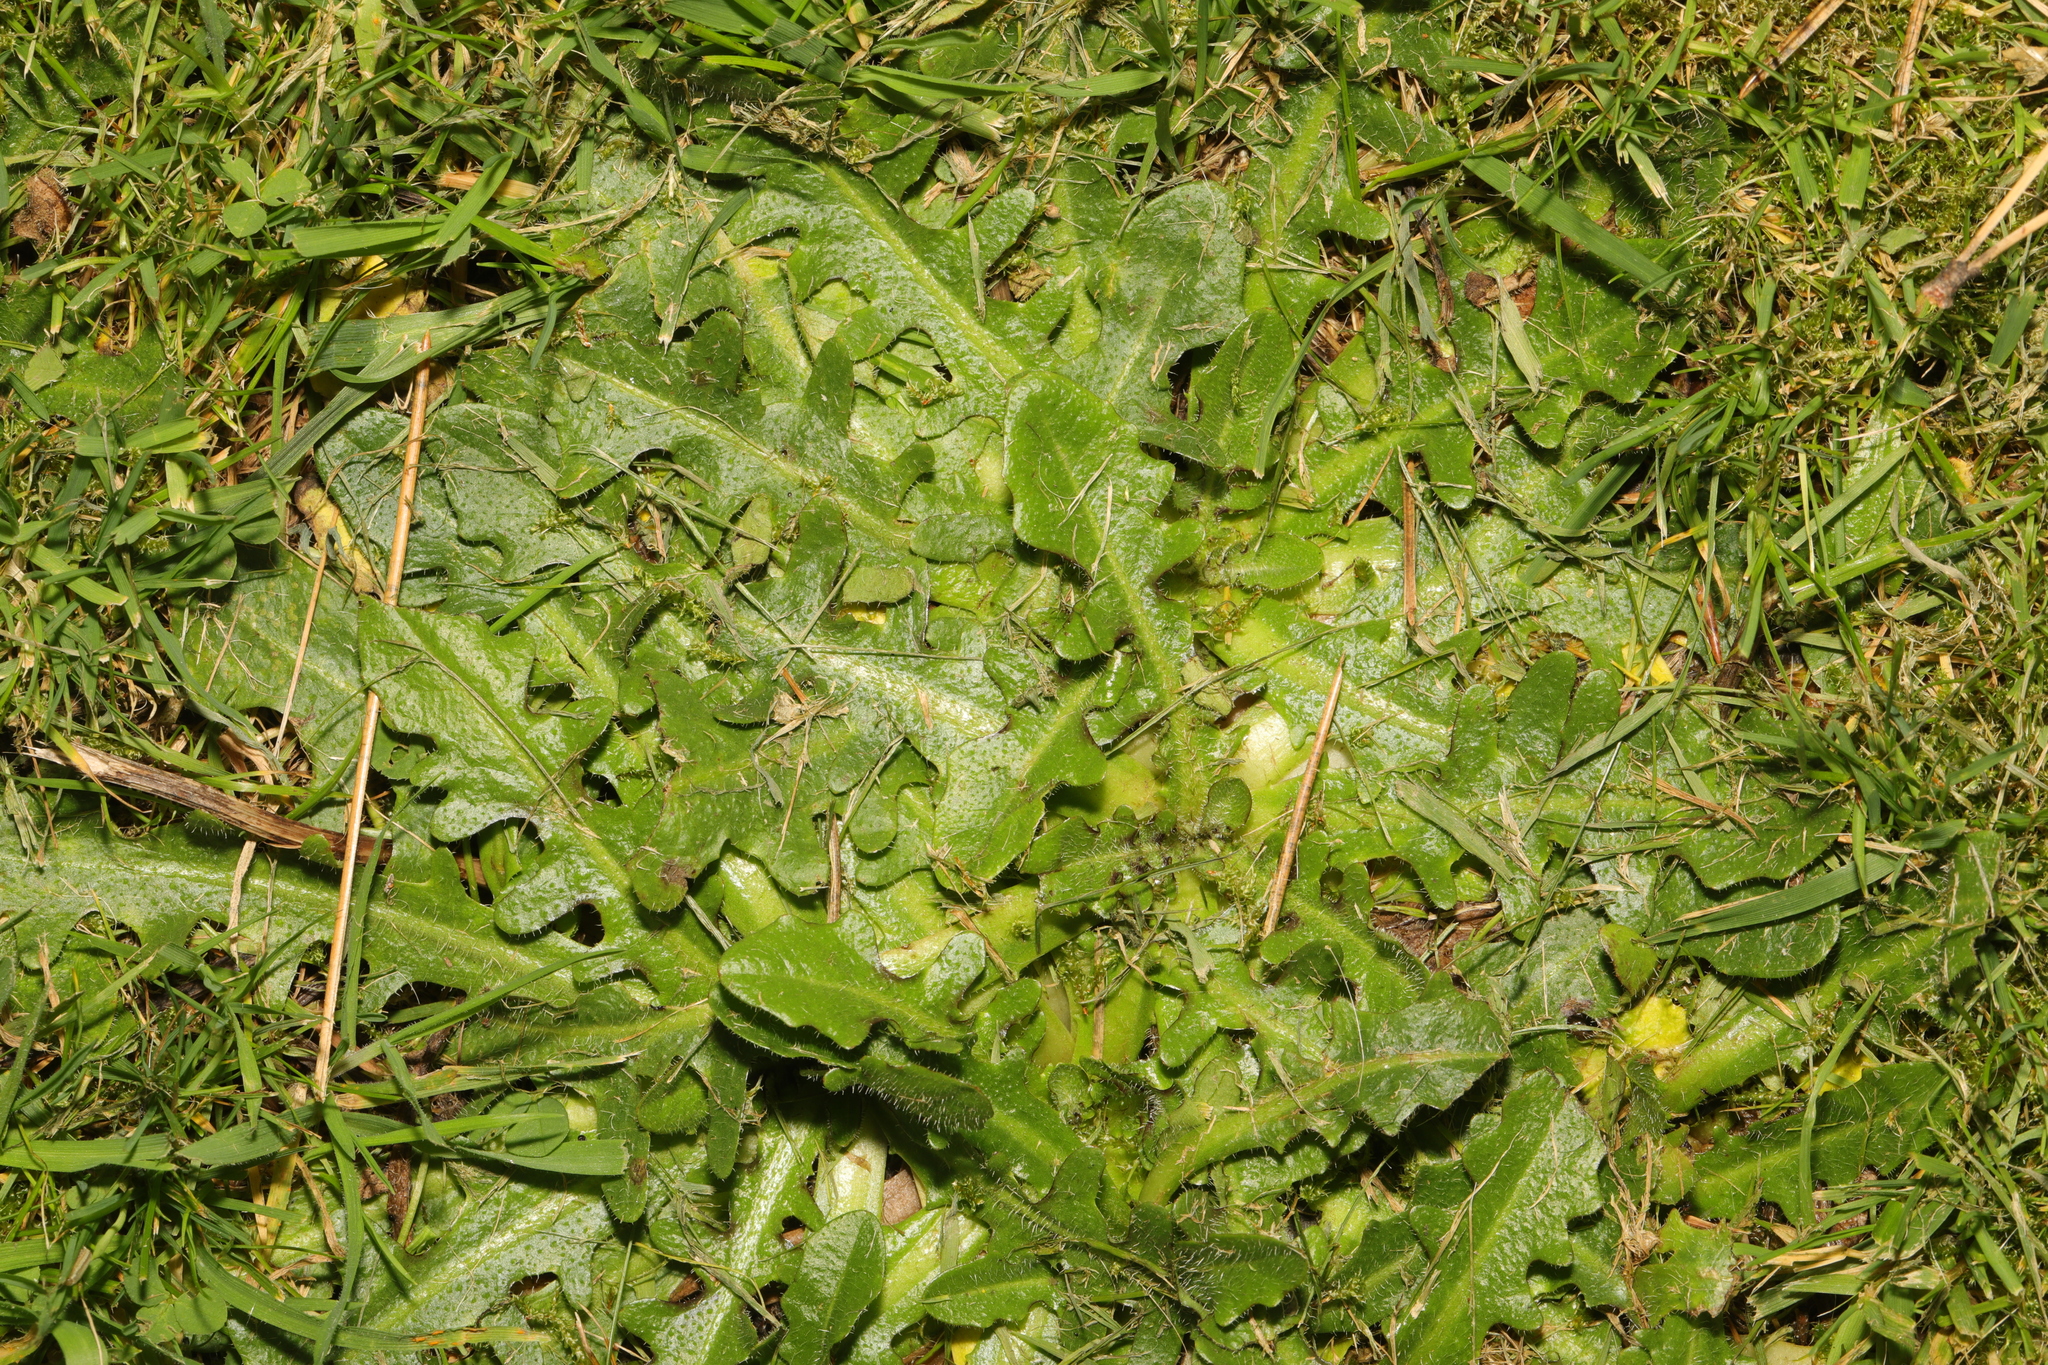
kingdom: Plantae
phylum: Tracheophyta
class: Magnoliopsida
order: Asterales
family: Asteraceae
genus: Hypochaeris
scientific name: Hypochaeris radicata
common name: Flatweed
